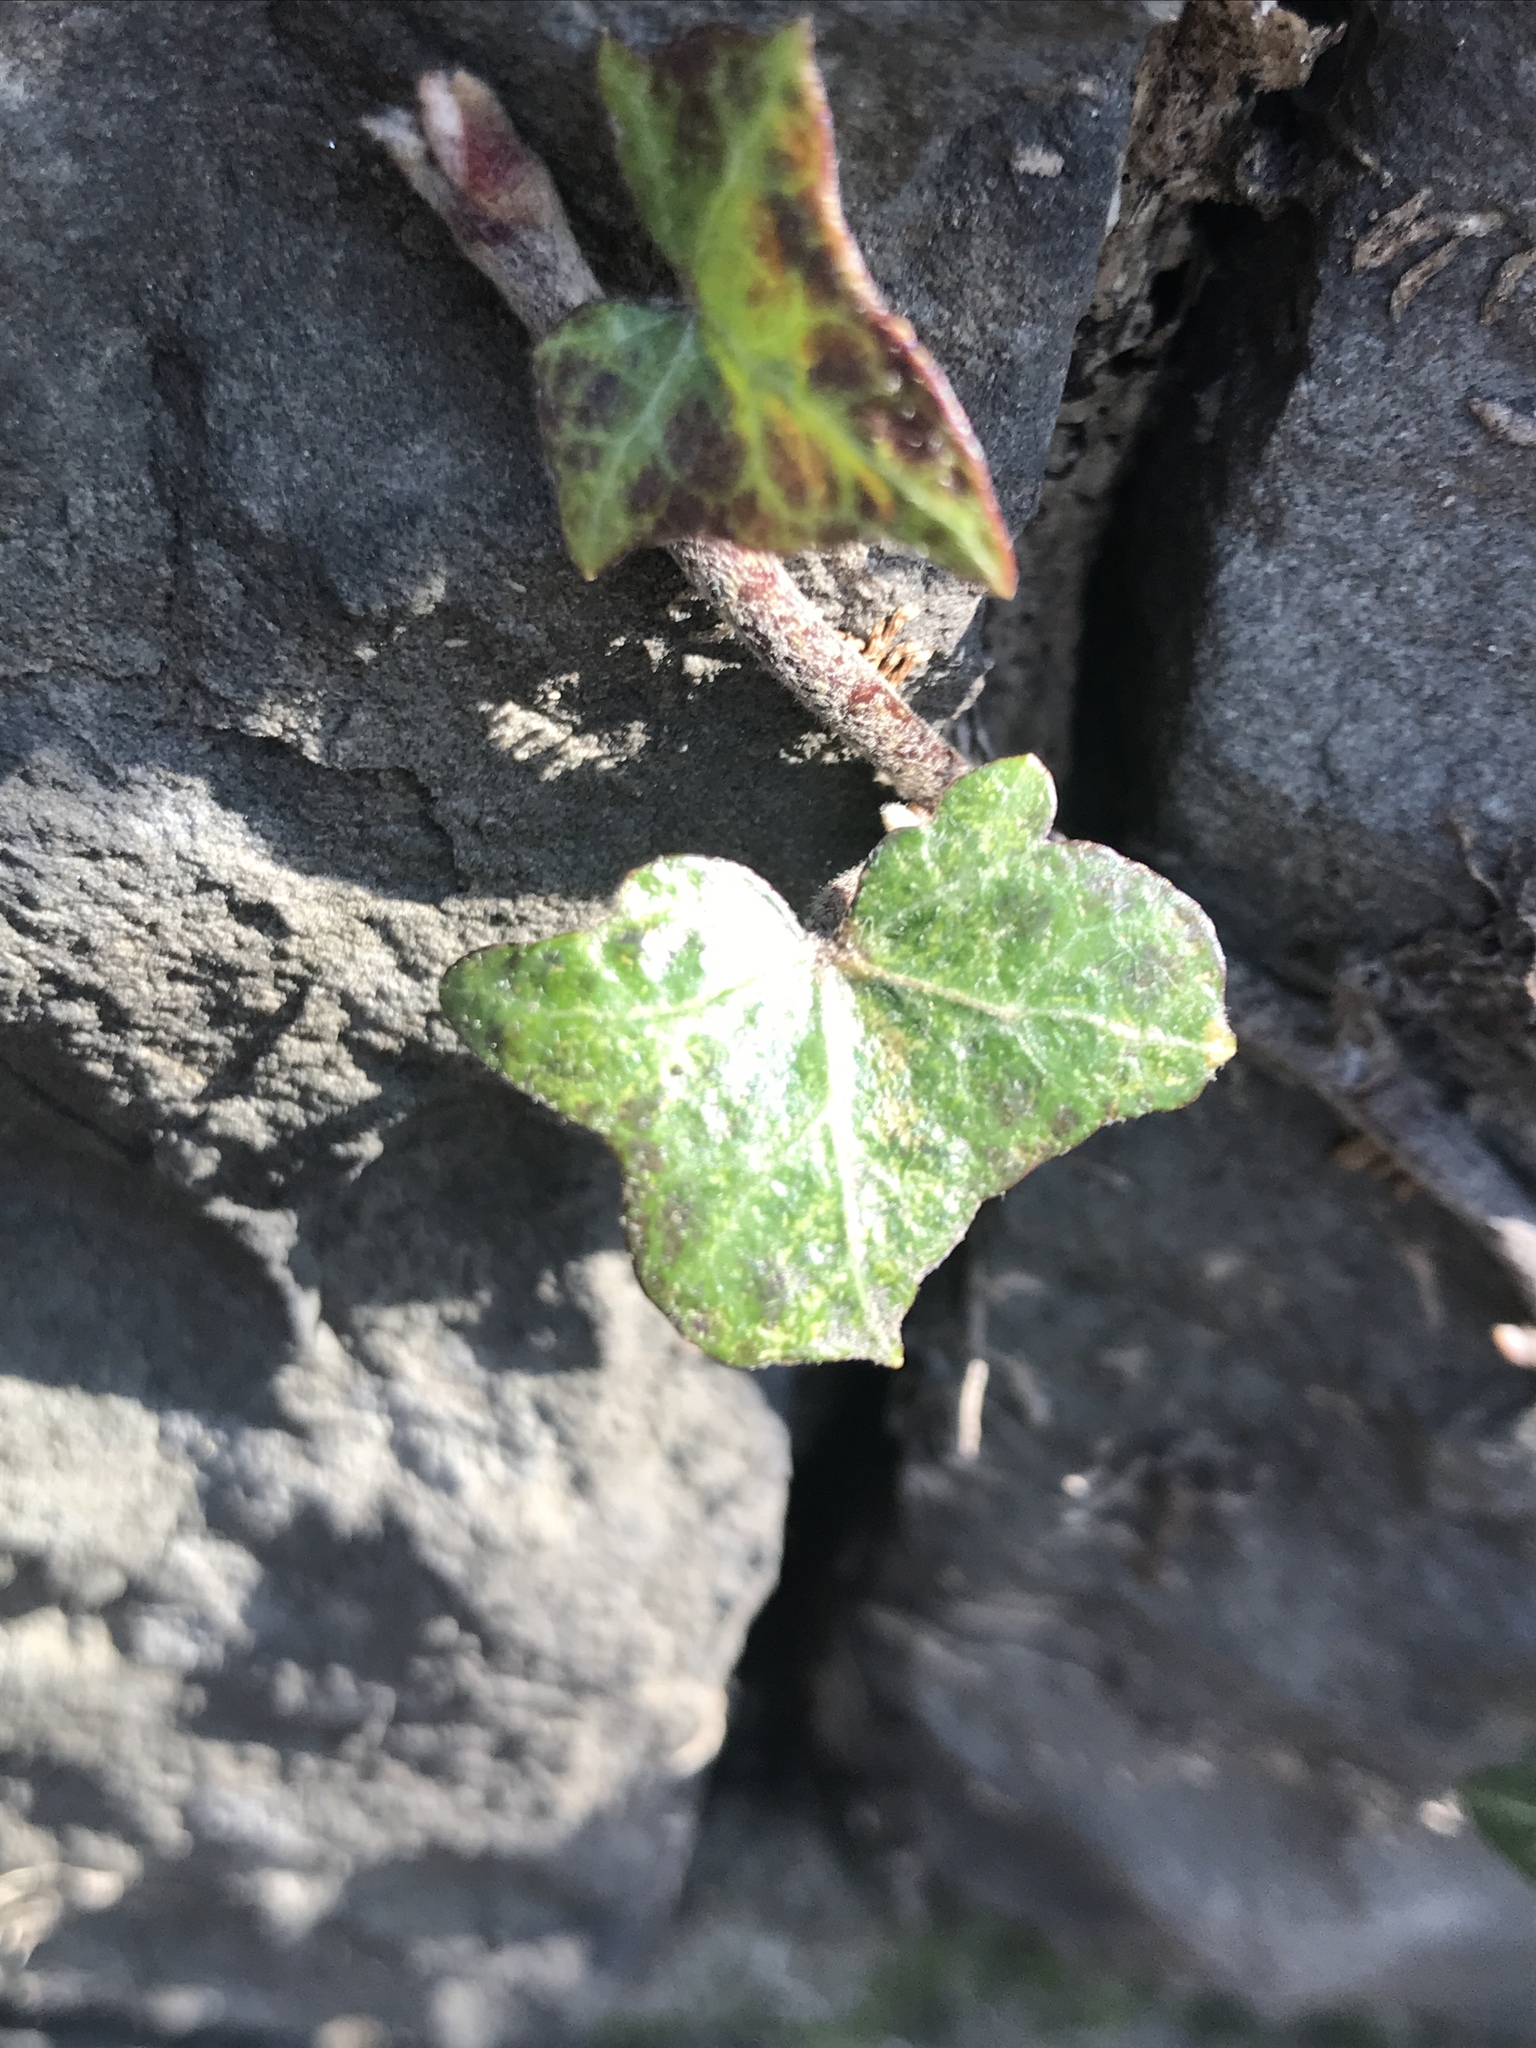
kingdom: Plantae
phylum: Tracheophyta
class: Magnoliopsida
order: Apiales
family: Araliaceae
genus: Hedera
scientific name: Hedera
